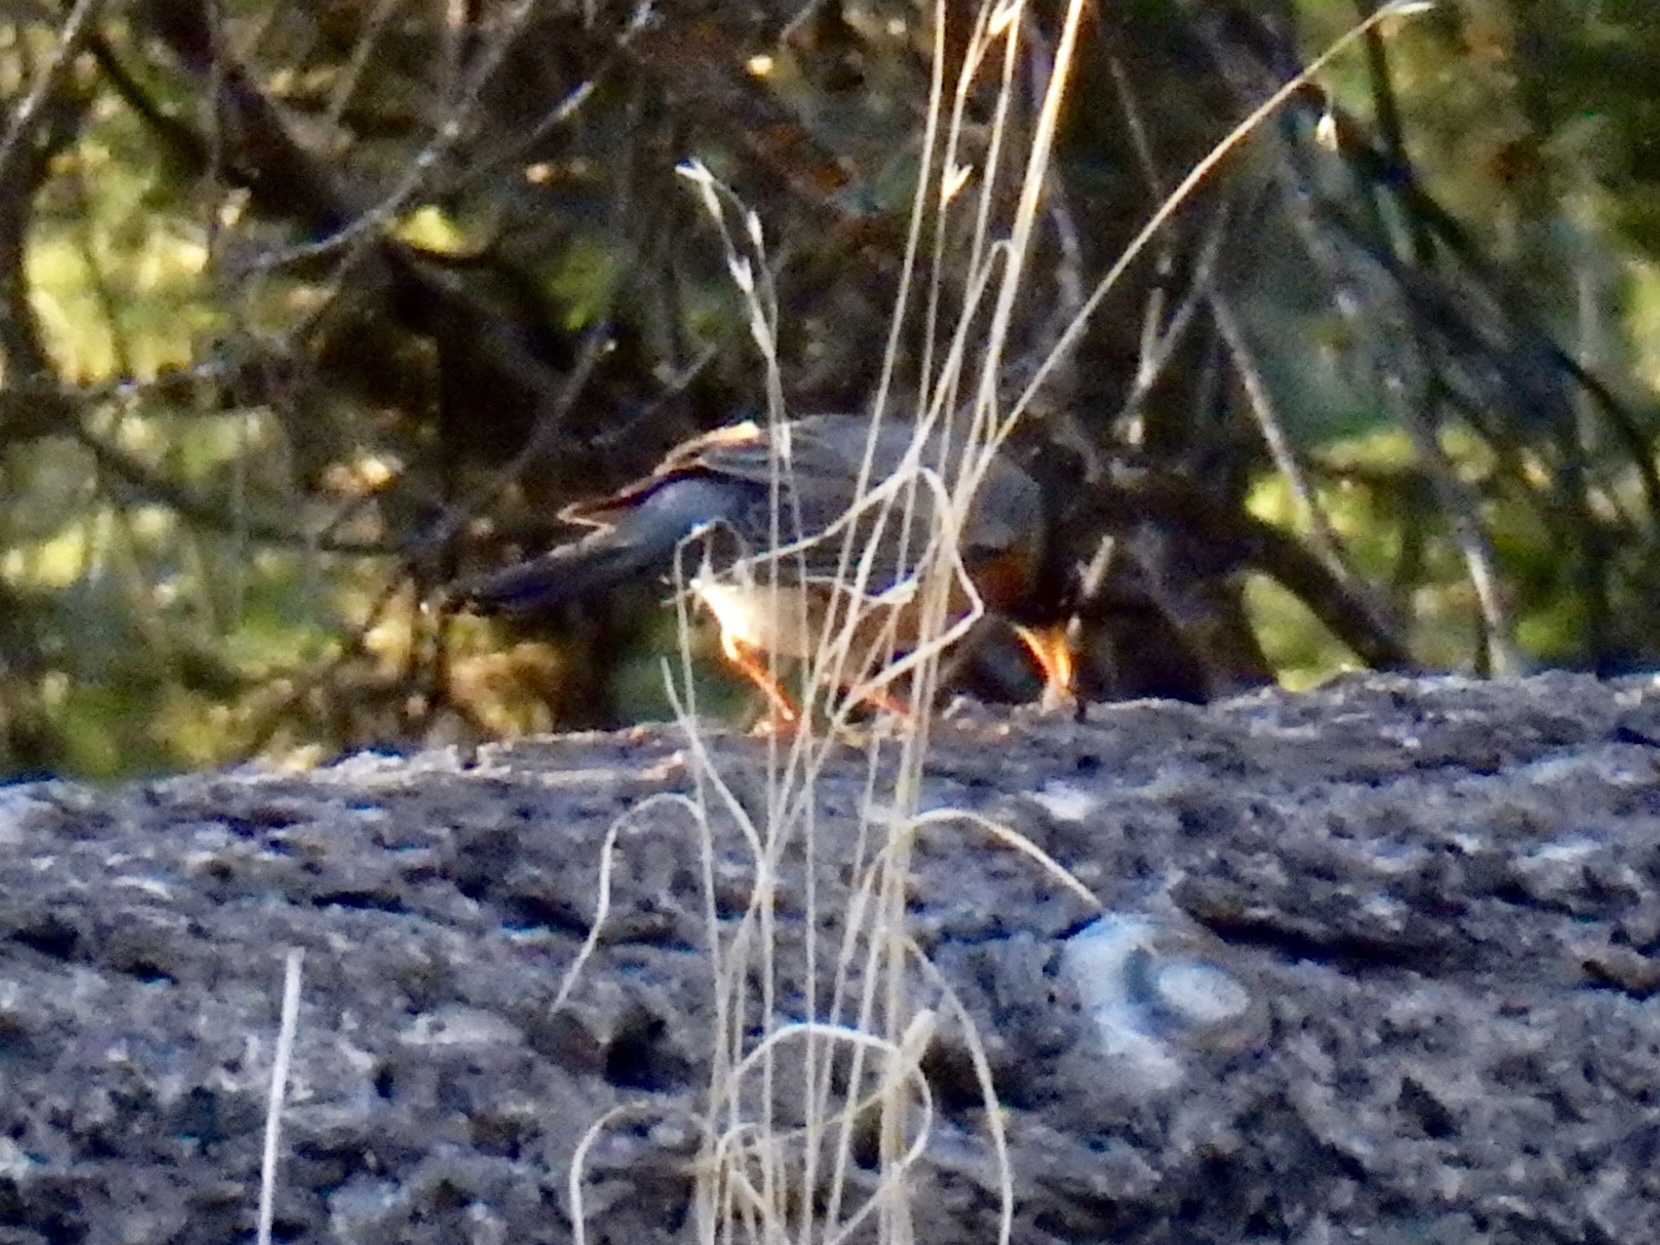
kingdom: Animalia
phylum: Chordata
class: Aves
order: Passeriformes
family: Turdidae
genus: Turdus
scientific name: Turdus migratorius
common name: American robin
